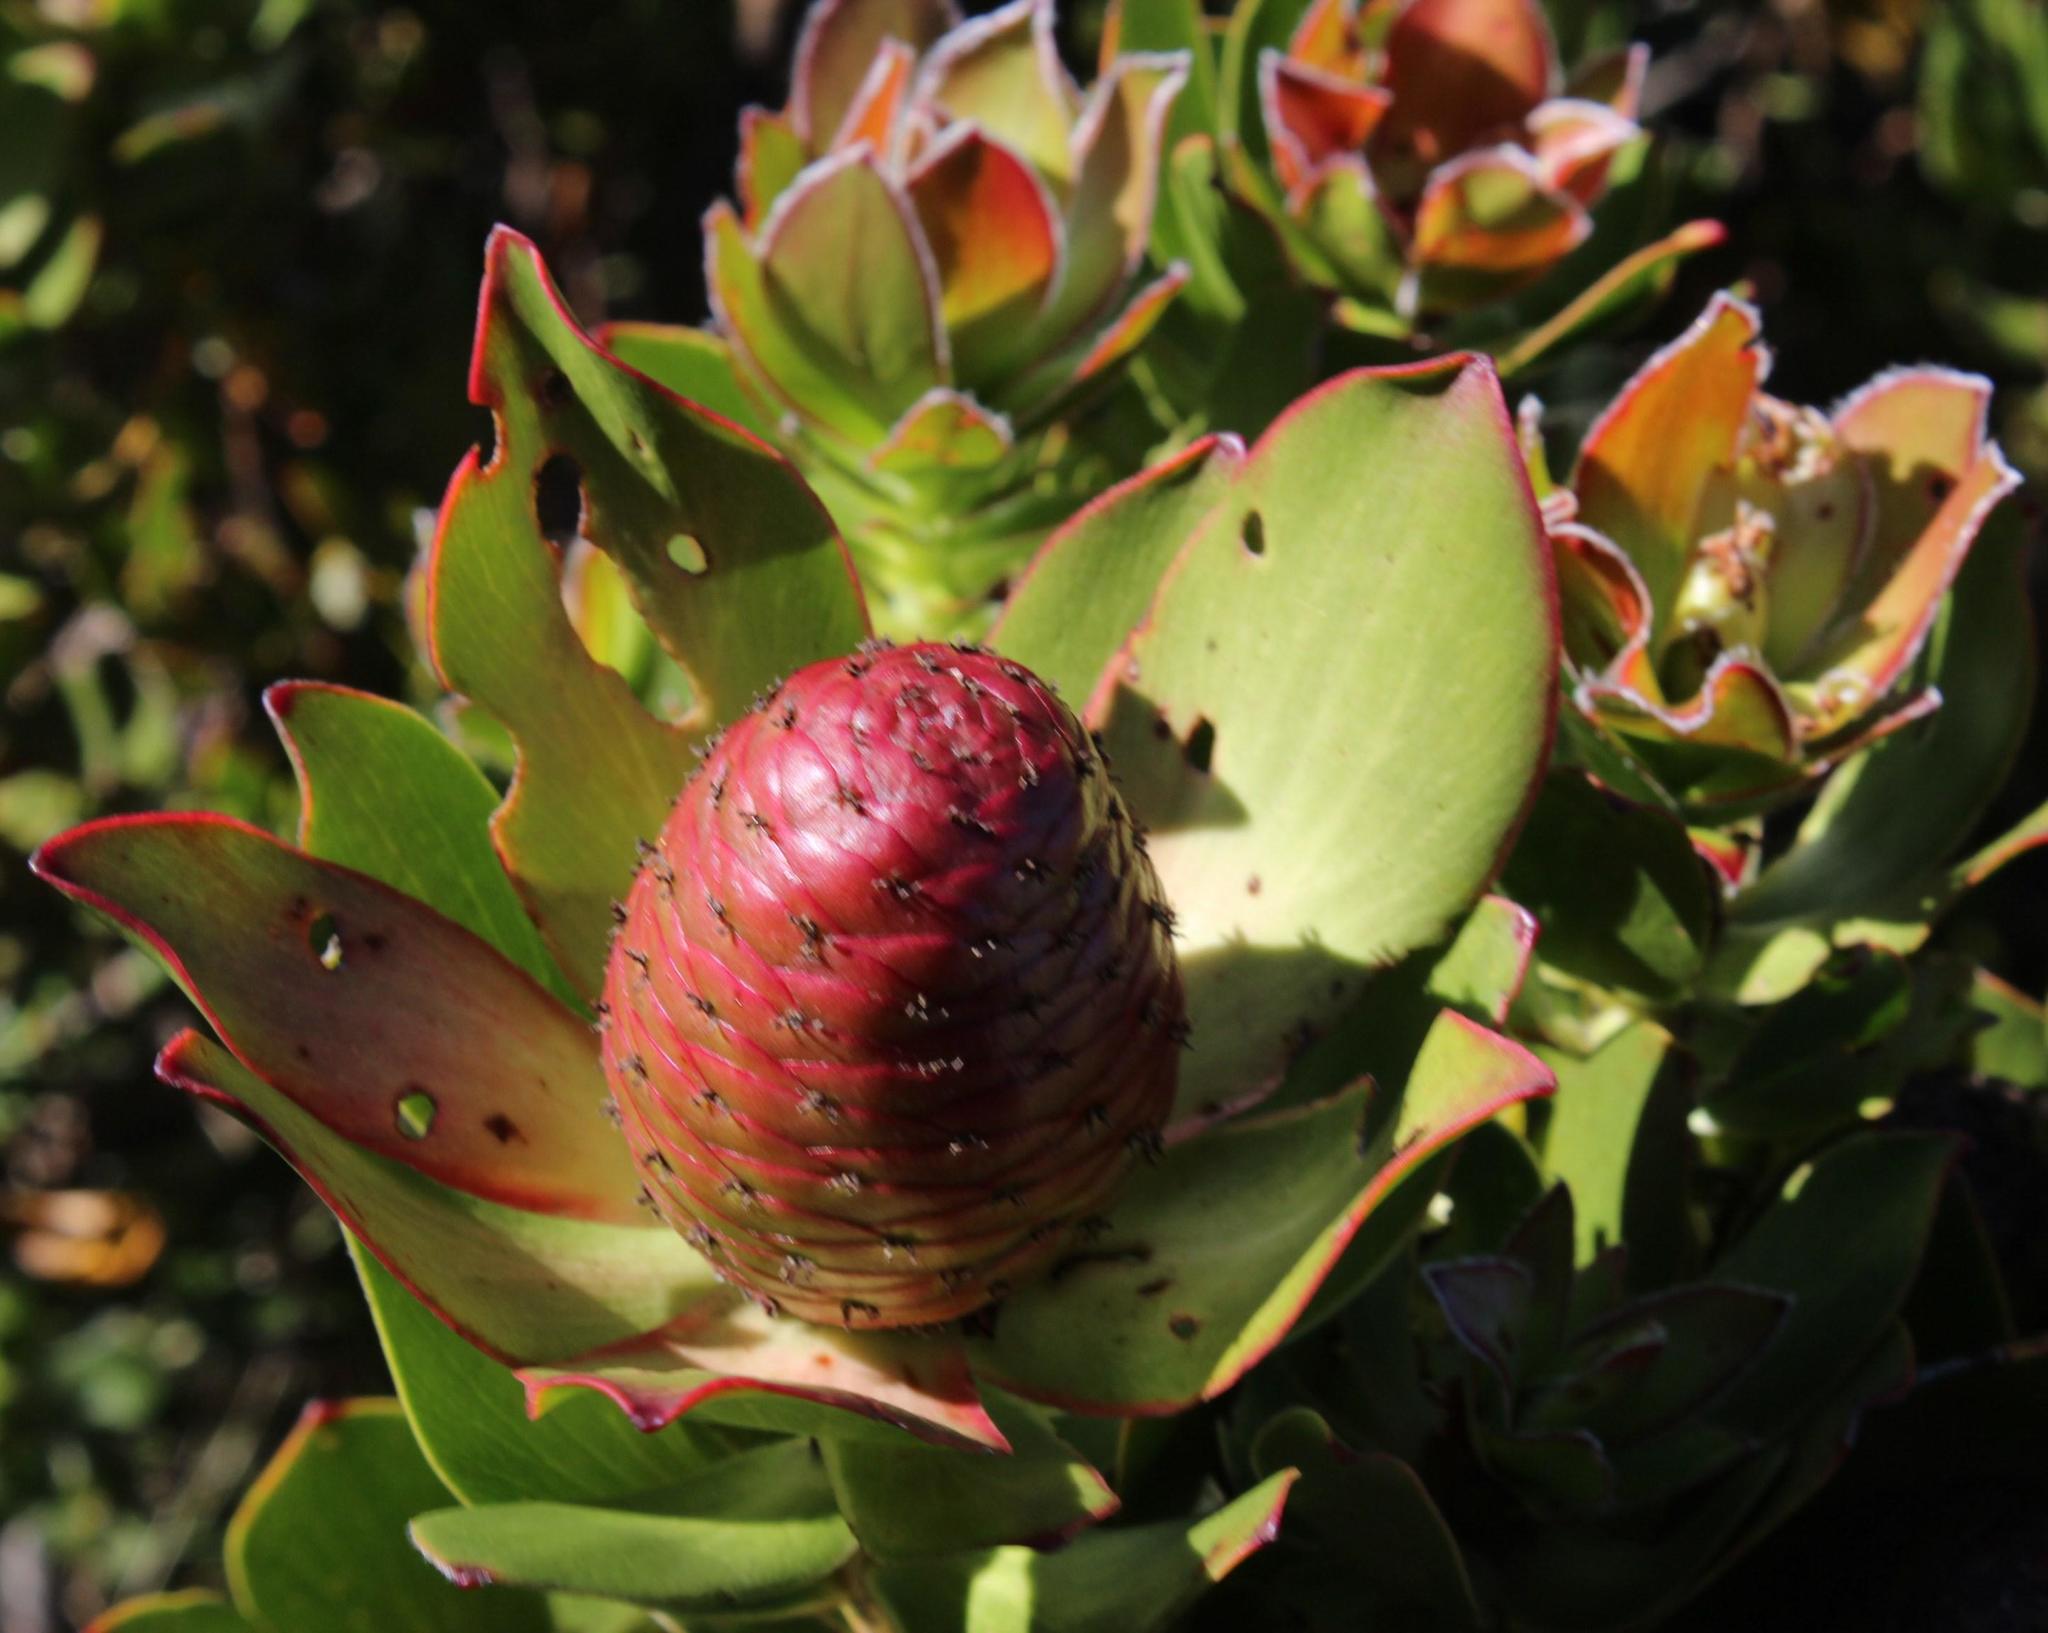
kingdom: Plantae
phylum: Tracheophyta
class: Magnoliopsida
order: Proteales
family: Proteaceae
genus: Leucadendron
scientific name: Leucadendron strobilinum
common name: Mountain rose
